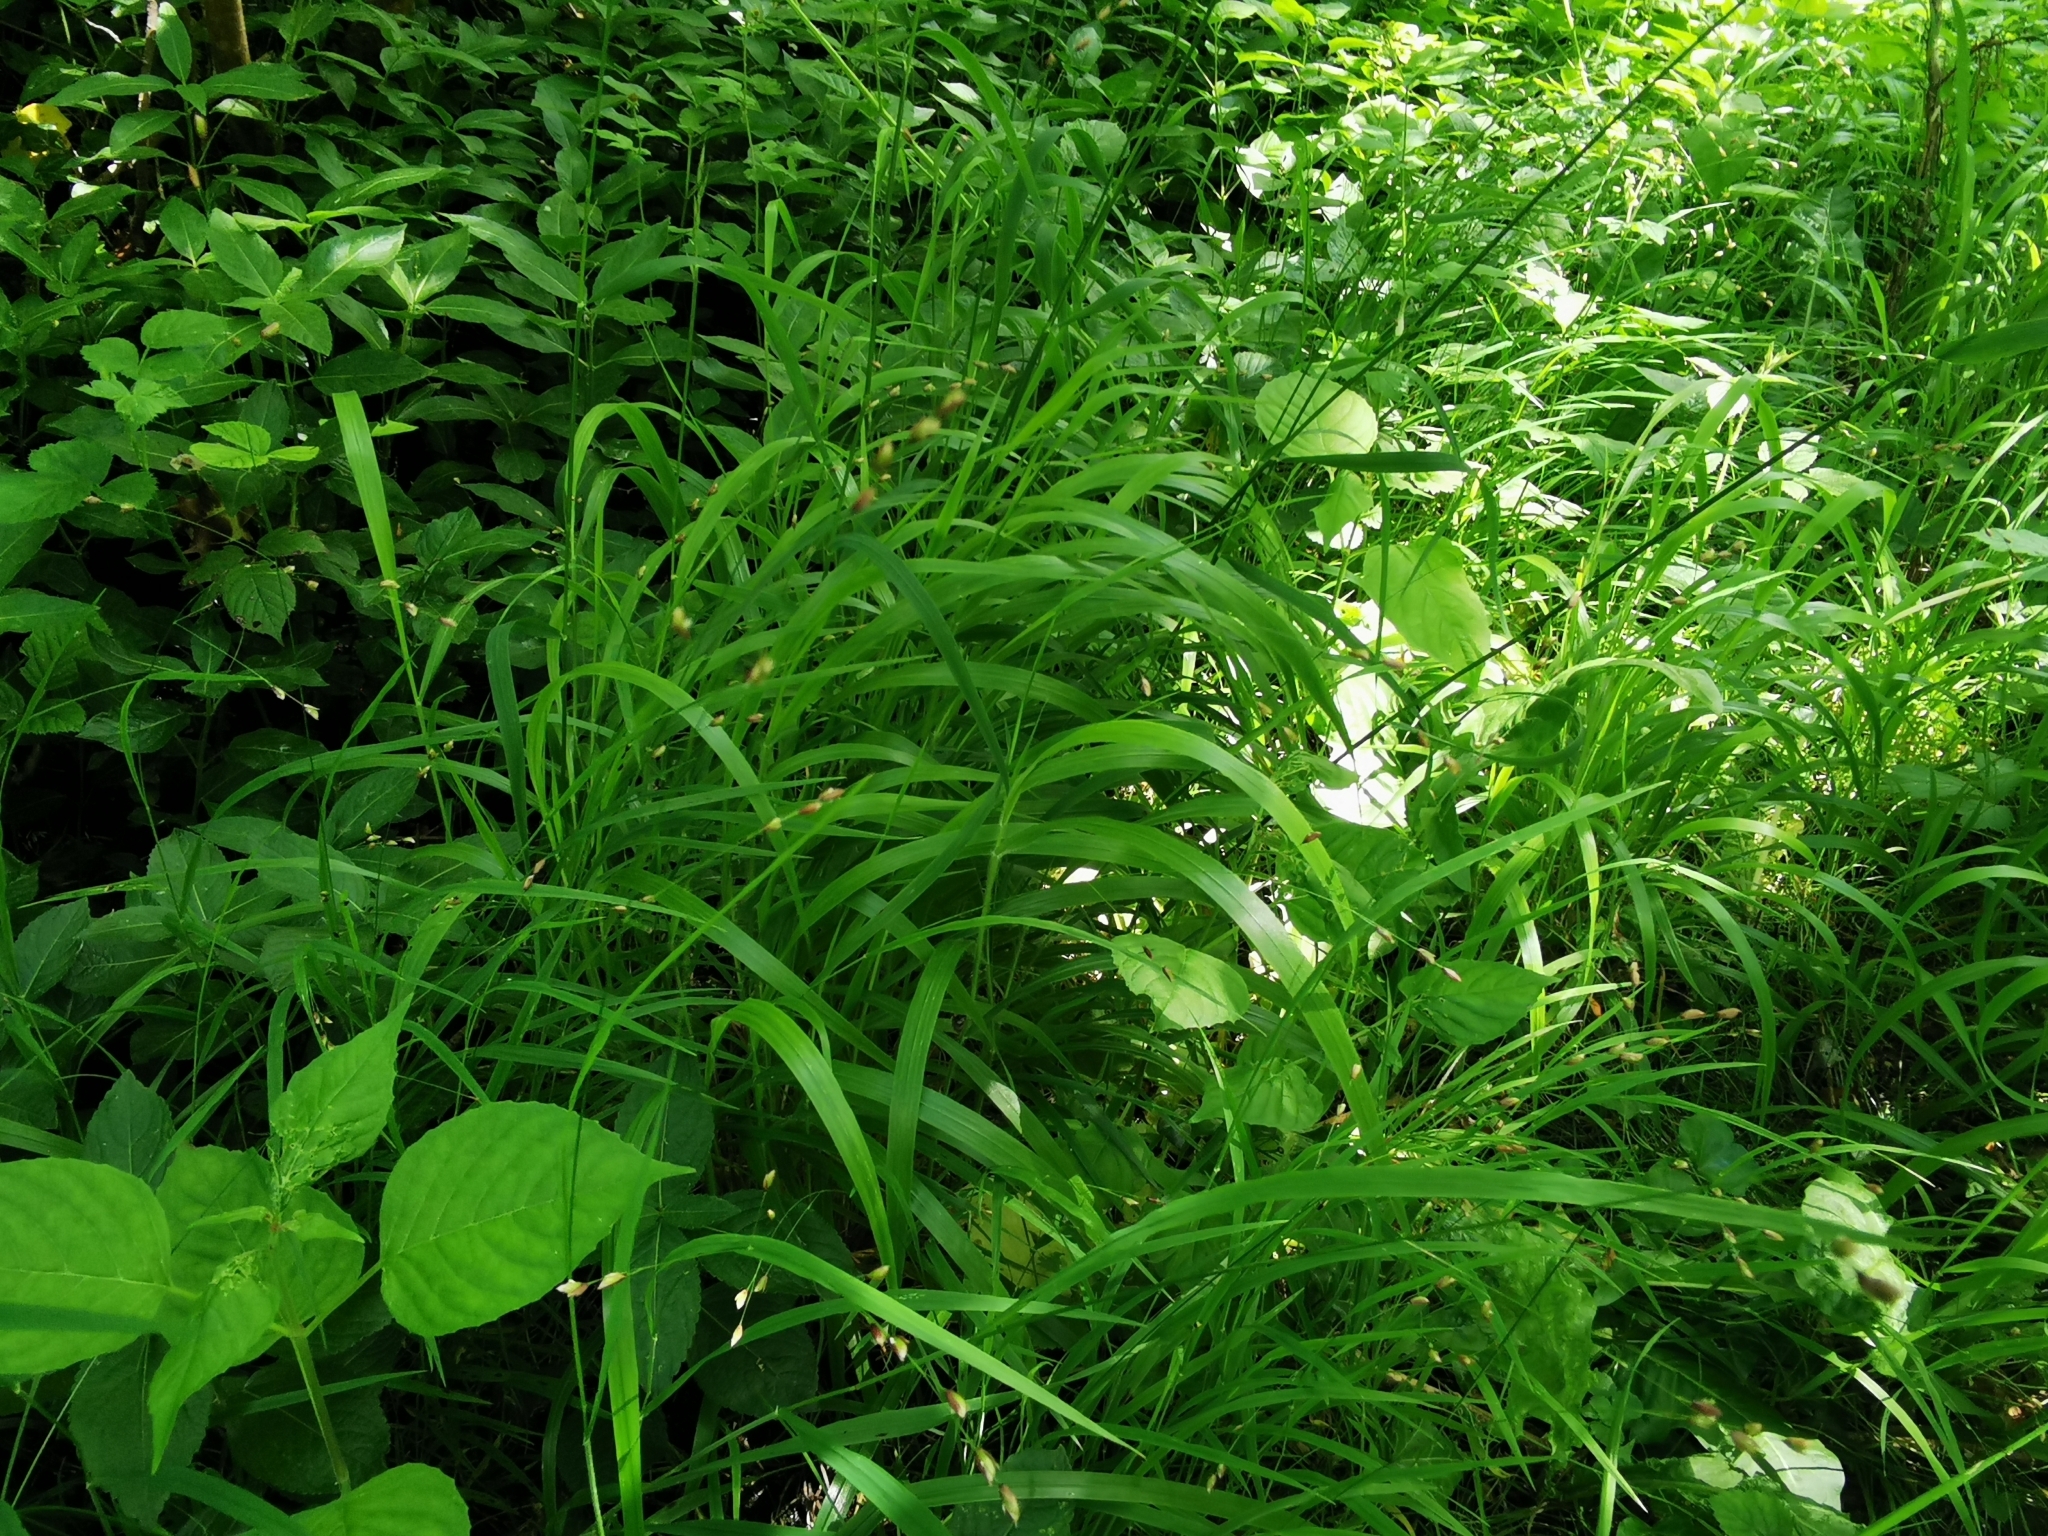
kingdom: Plantae
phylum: Tracheophyta
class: Liliopsida
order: Poales
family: Poaceae
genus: Melica
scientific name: Melica uniflora
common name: Wood melick
